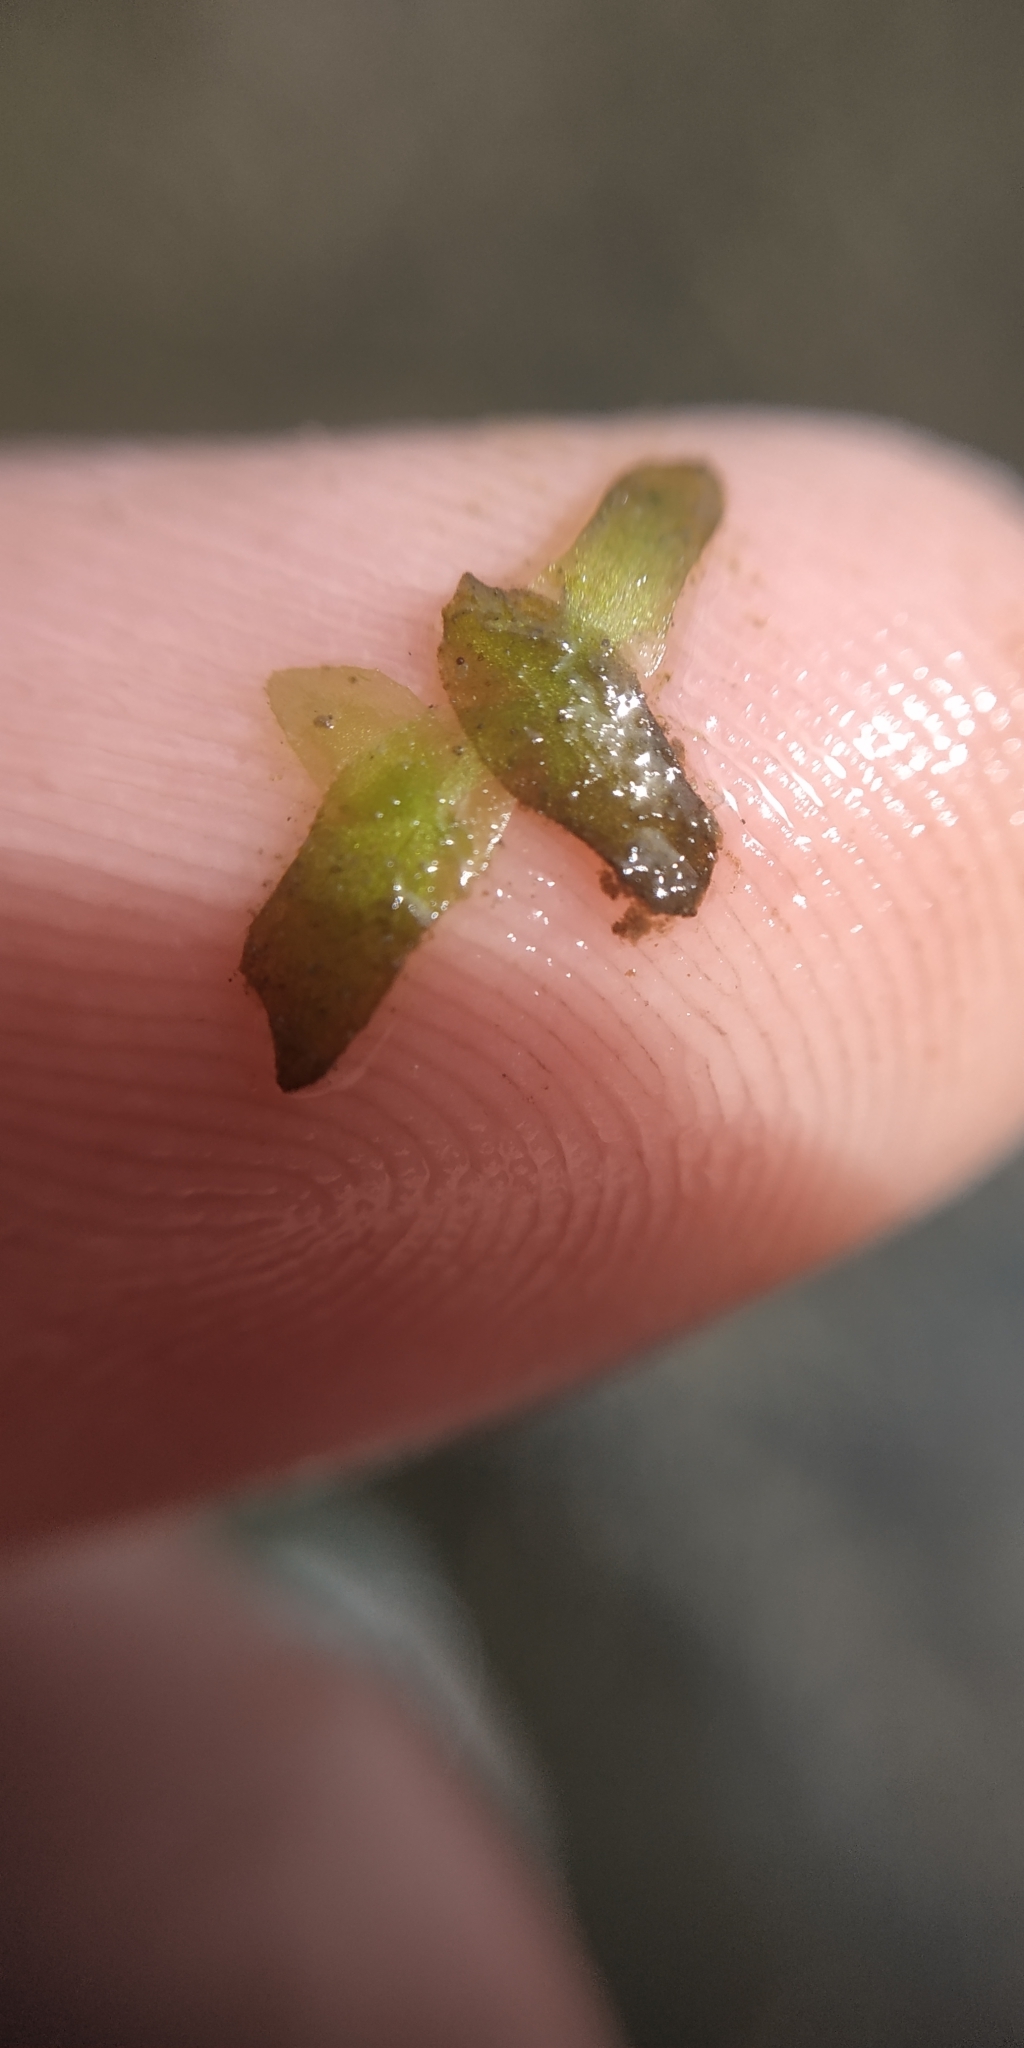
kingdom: Plantae
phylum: Tracheophyta
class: Liliopsida
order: Alismatales
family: Araceae
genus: Lemna
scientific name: Lemna trisulca
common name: Ivy-leaved duckweed
